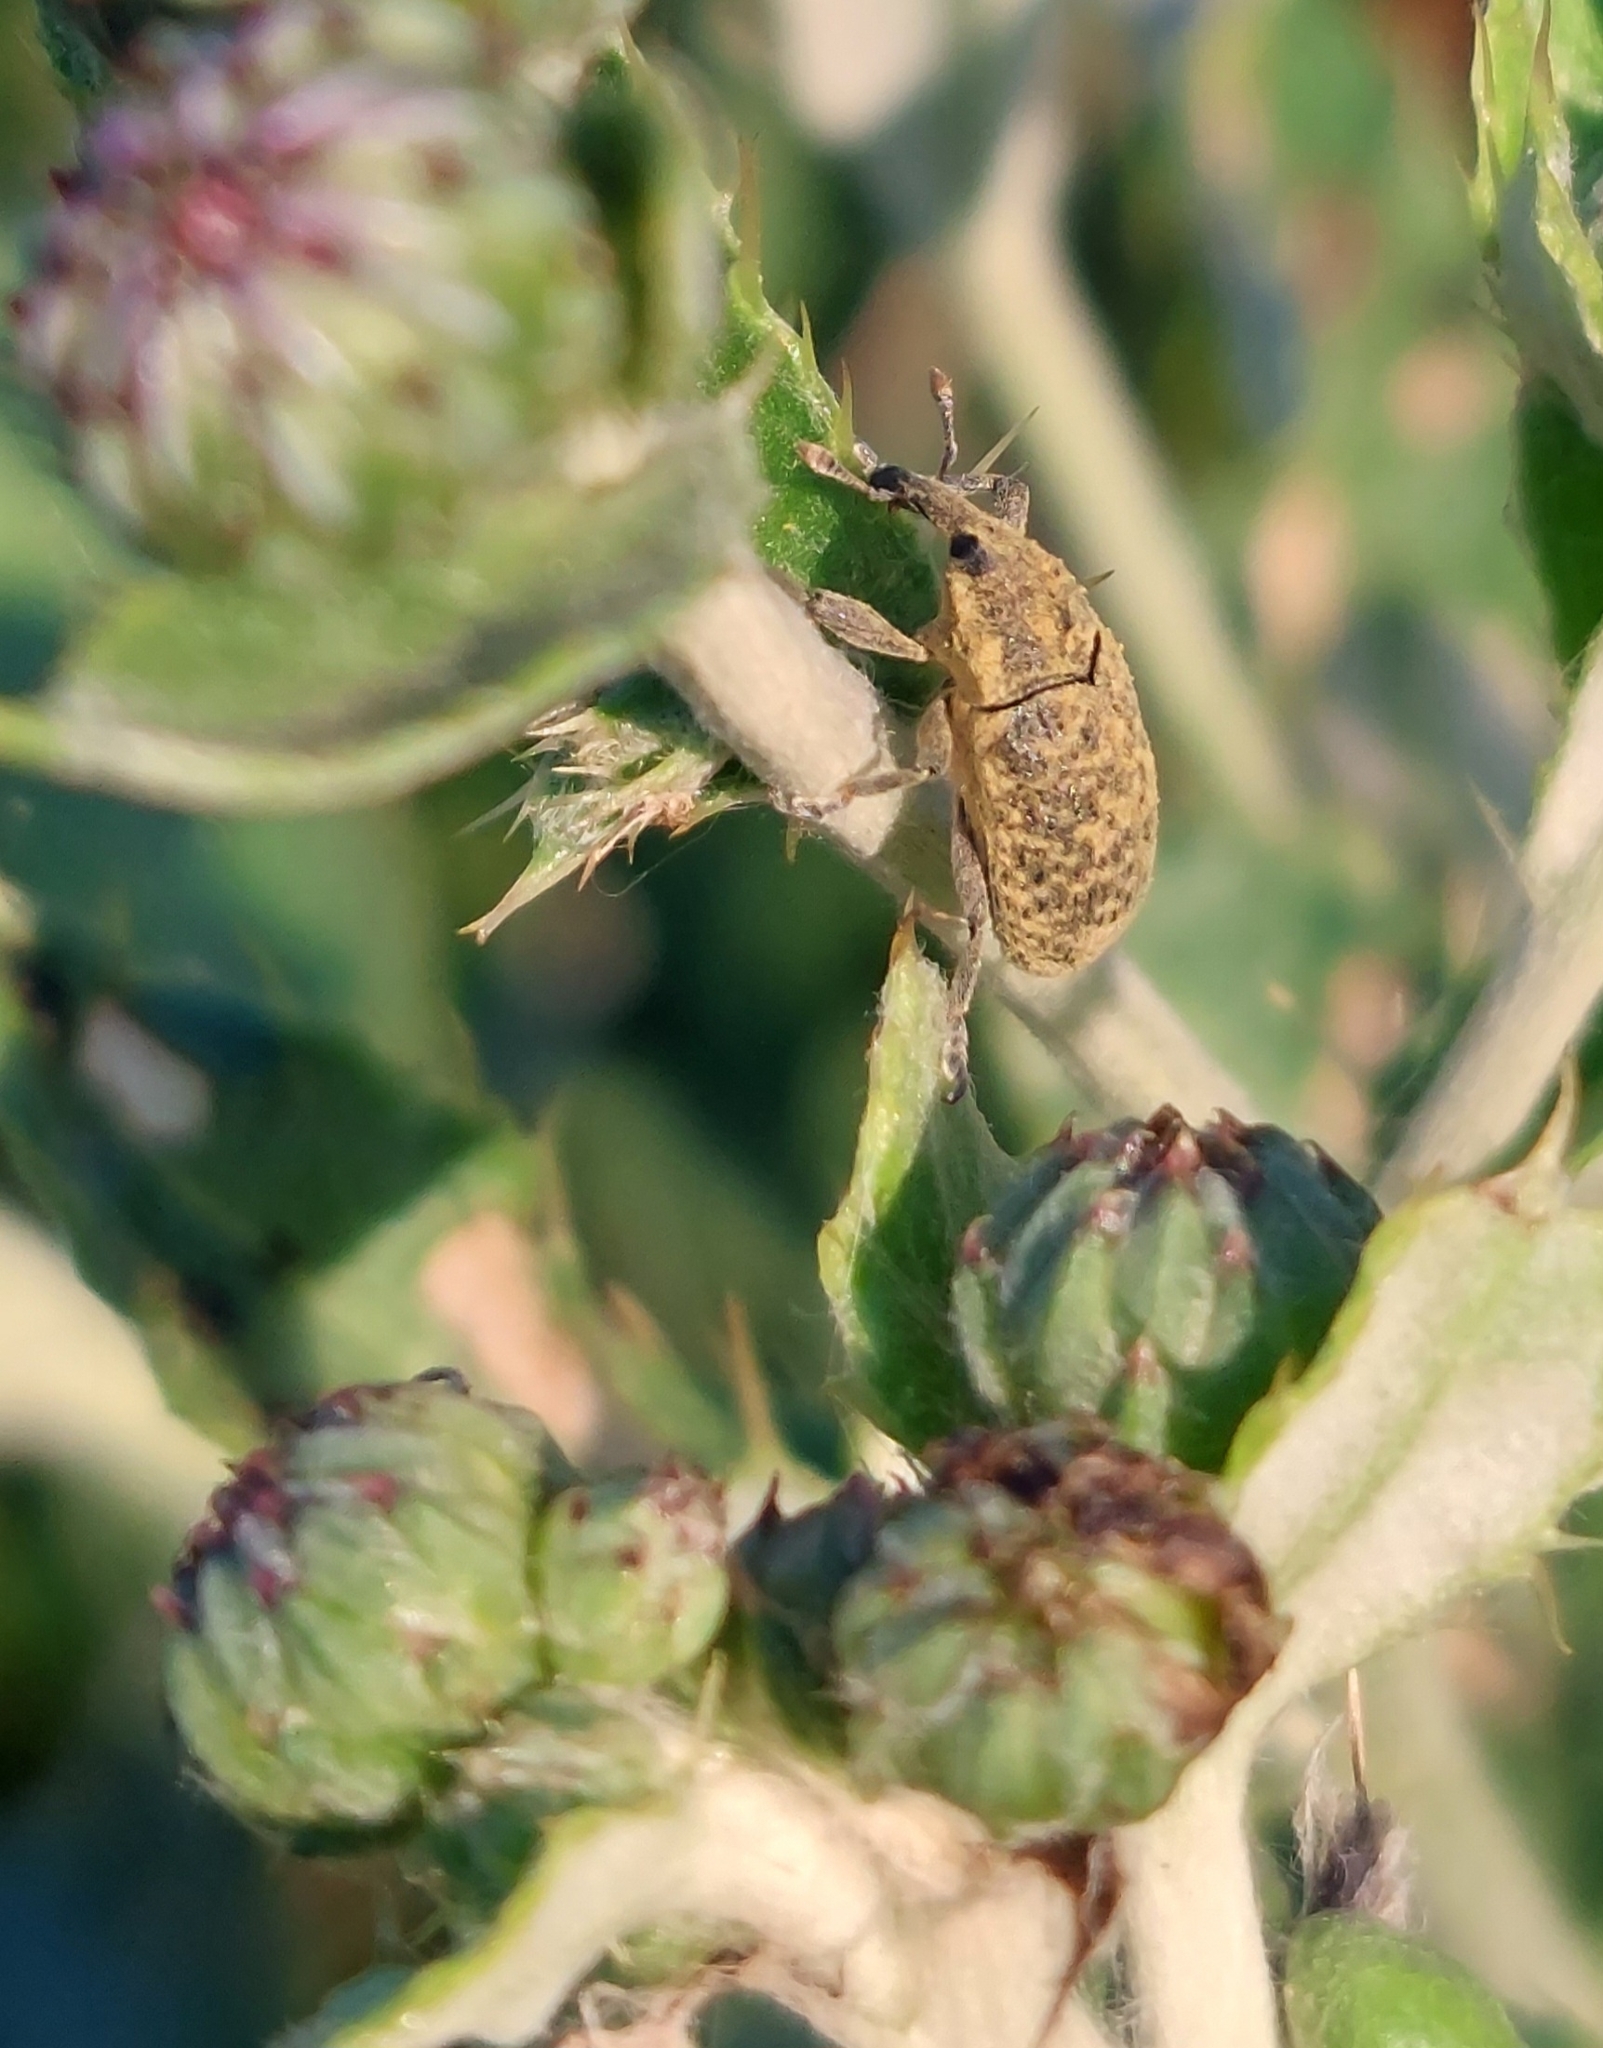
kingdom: Animalia
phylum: Arthropoda
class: Insecta
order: Coleoptera
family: Curculionidae
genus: Larinus
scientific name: Larinus carlinae
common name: Weevil
